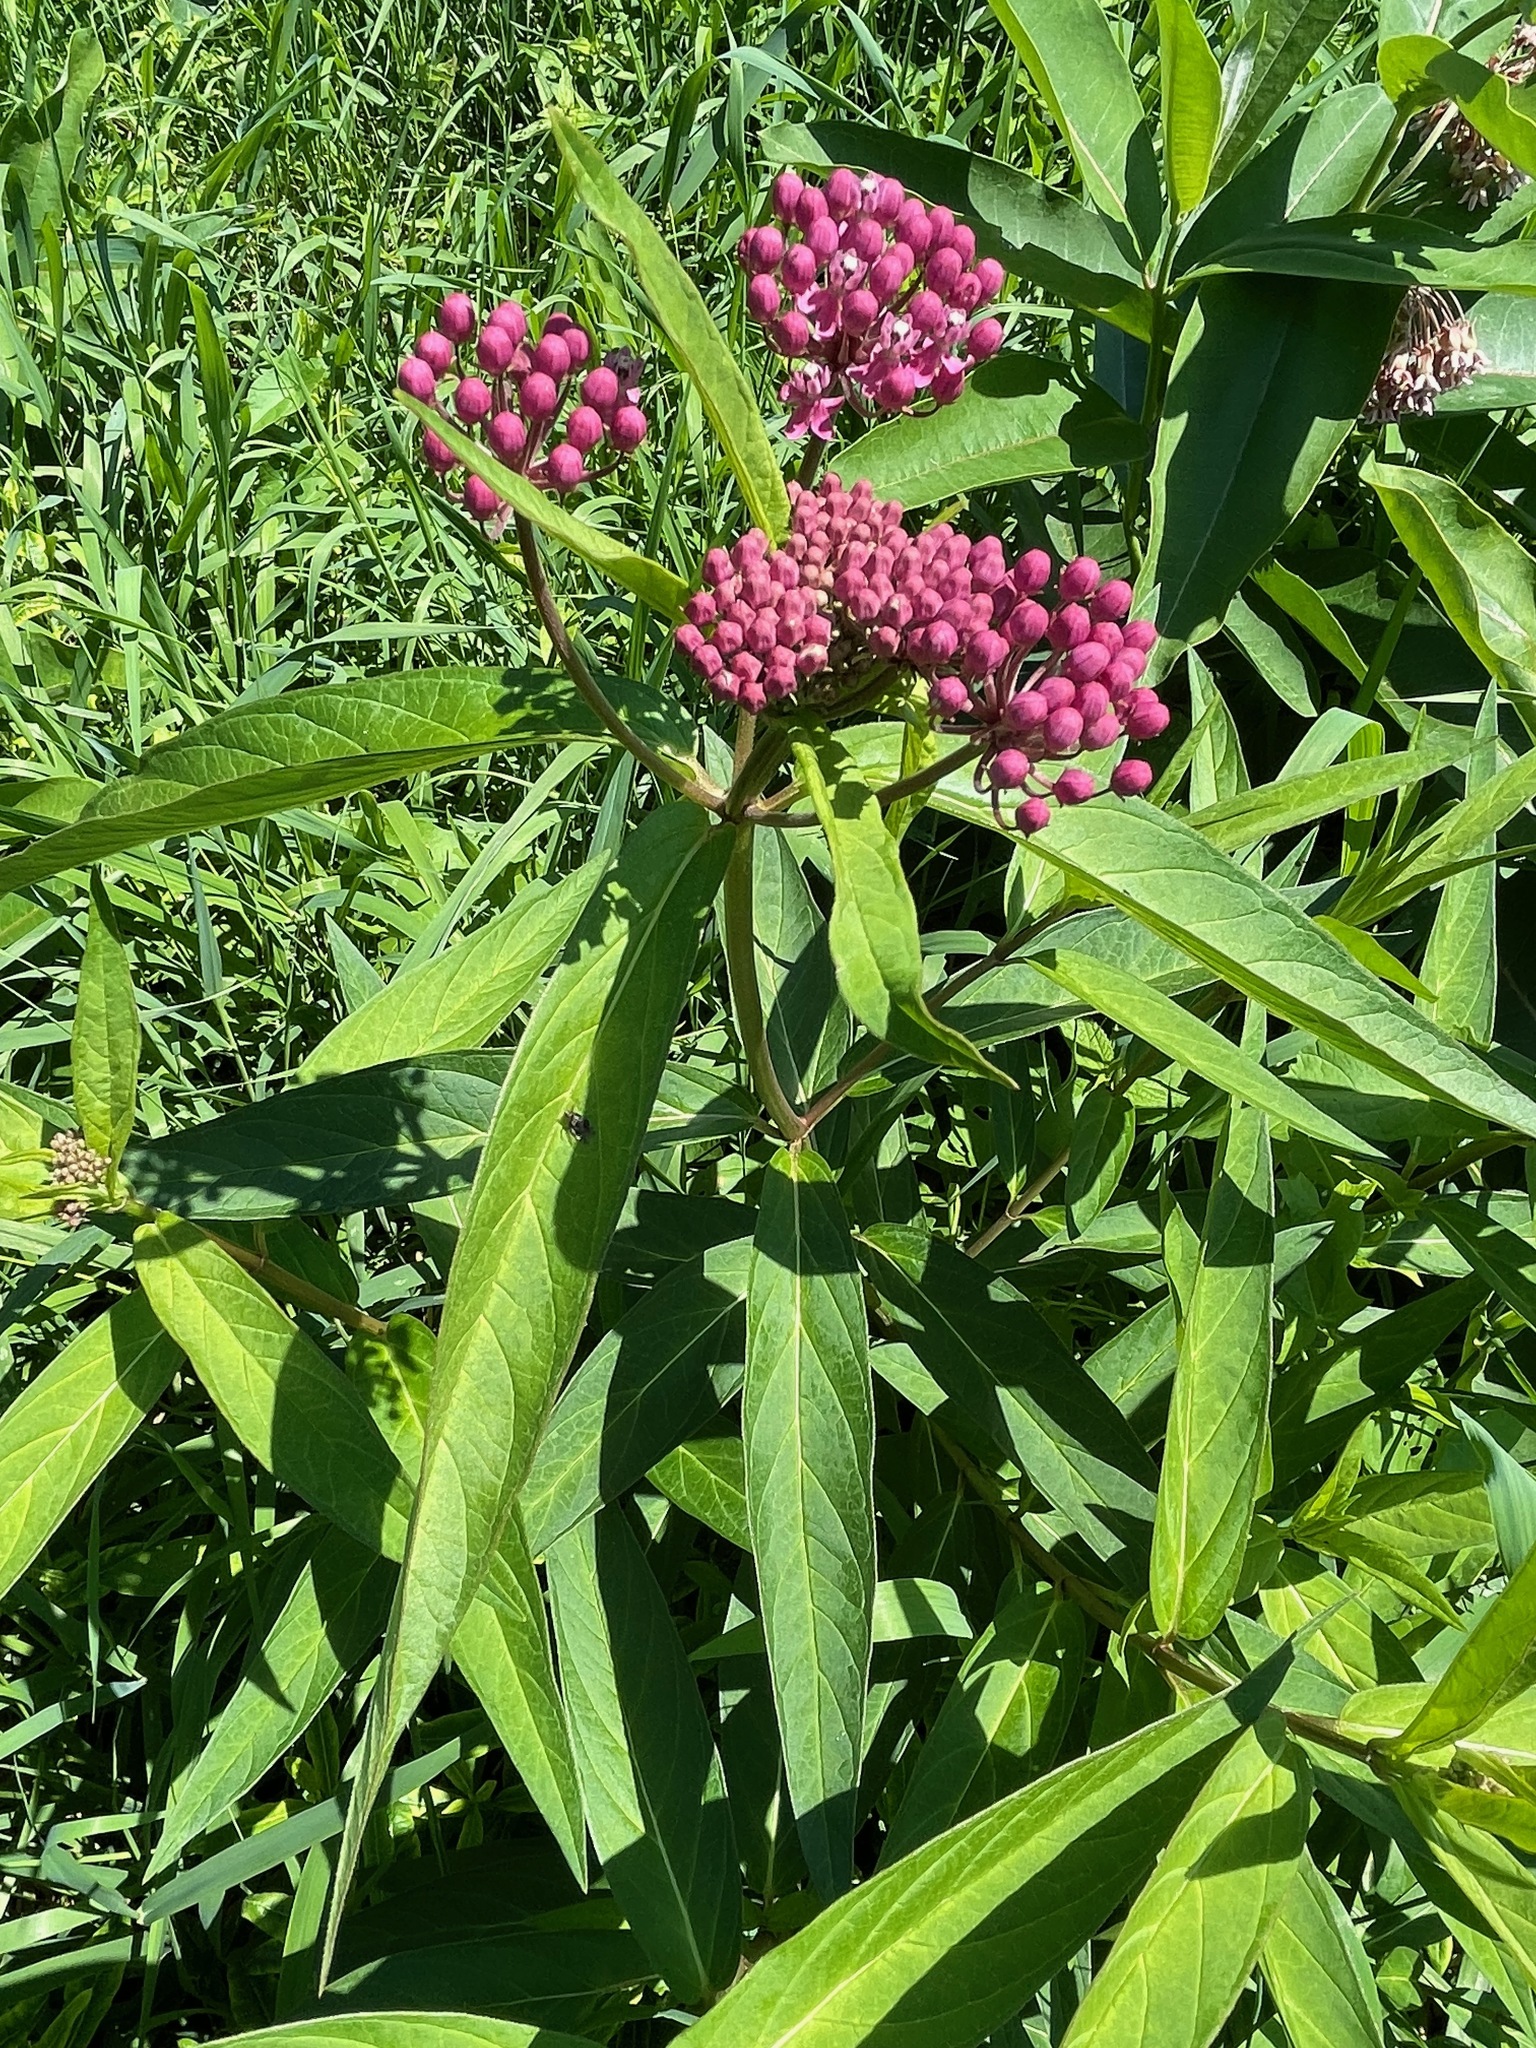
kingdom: Plantae
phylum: Tracheophyta
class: Magnoliopsida
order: Gentianales
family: Apocynaceae
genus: Asclepias
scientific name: Asclepias incarnata
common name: Swamp milkweed
